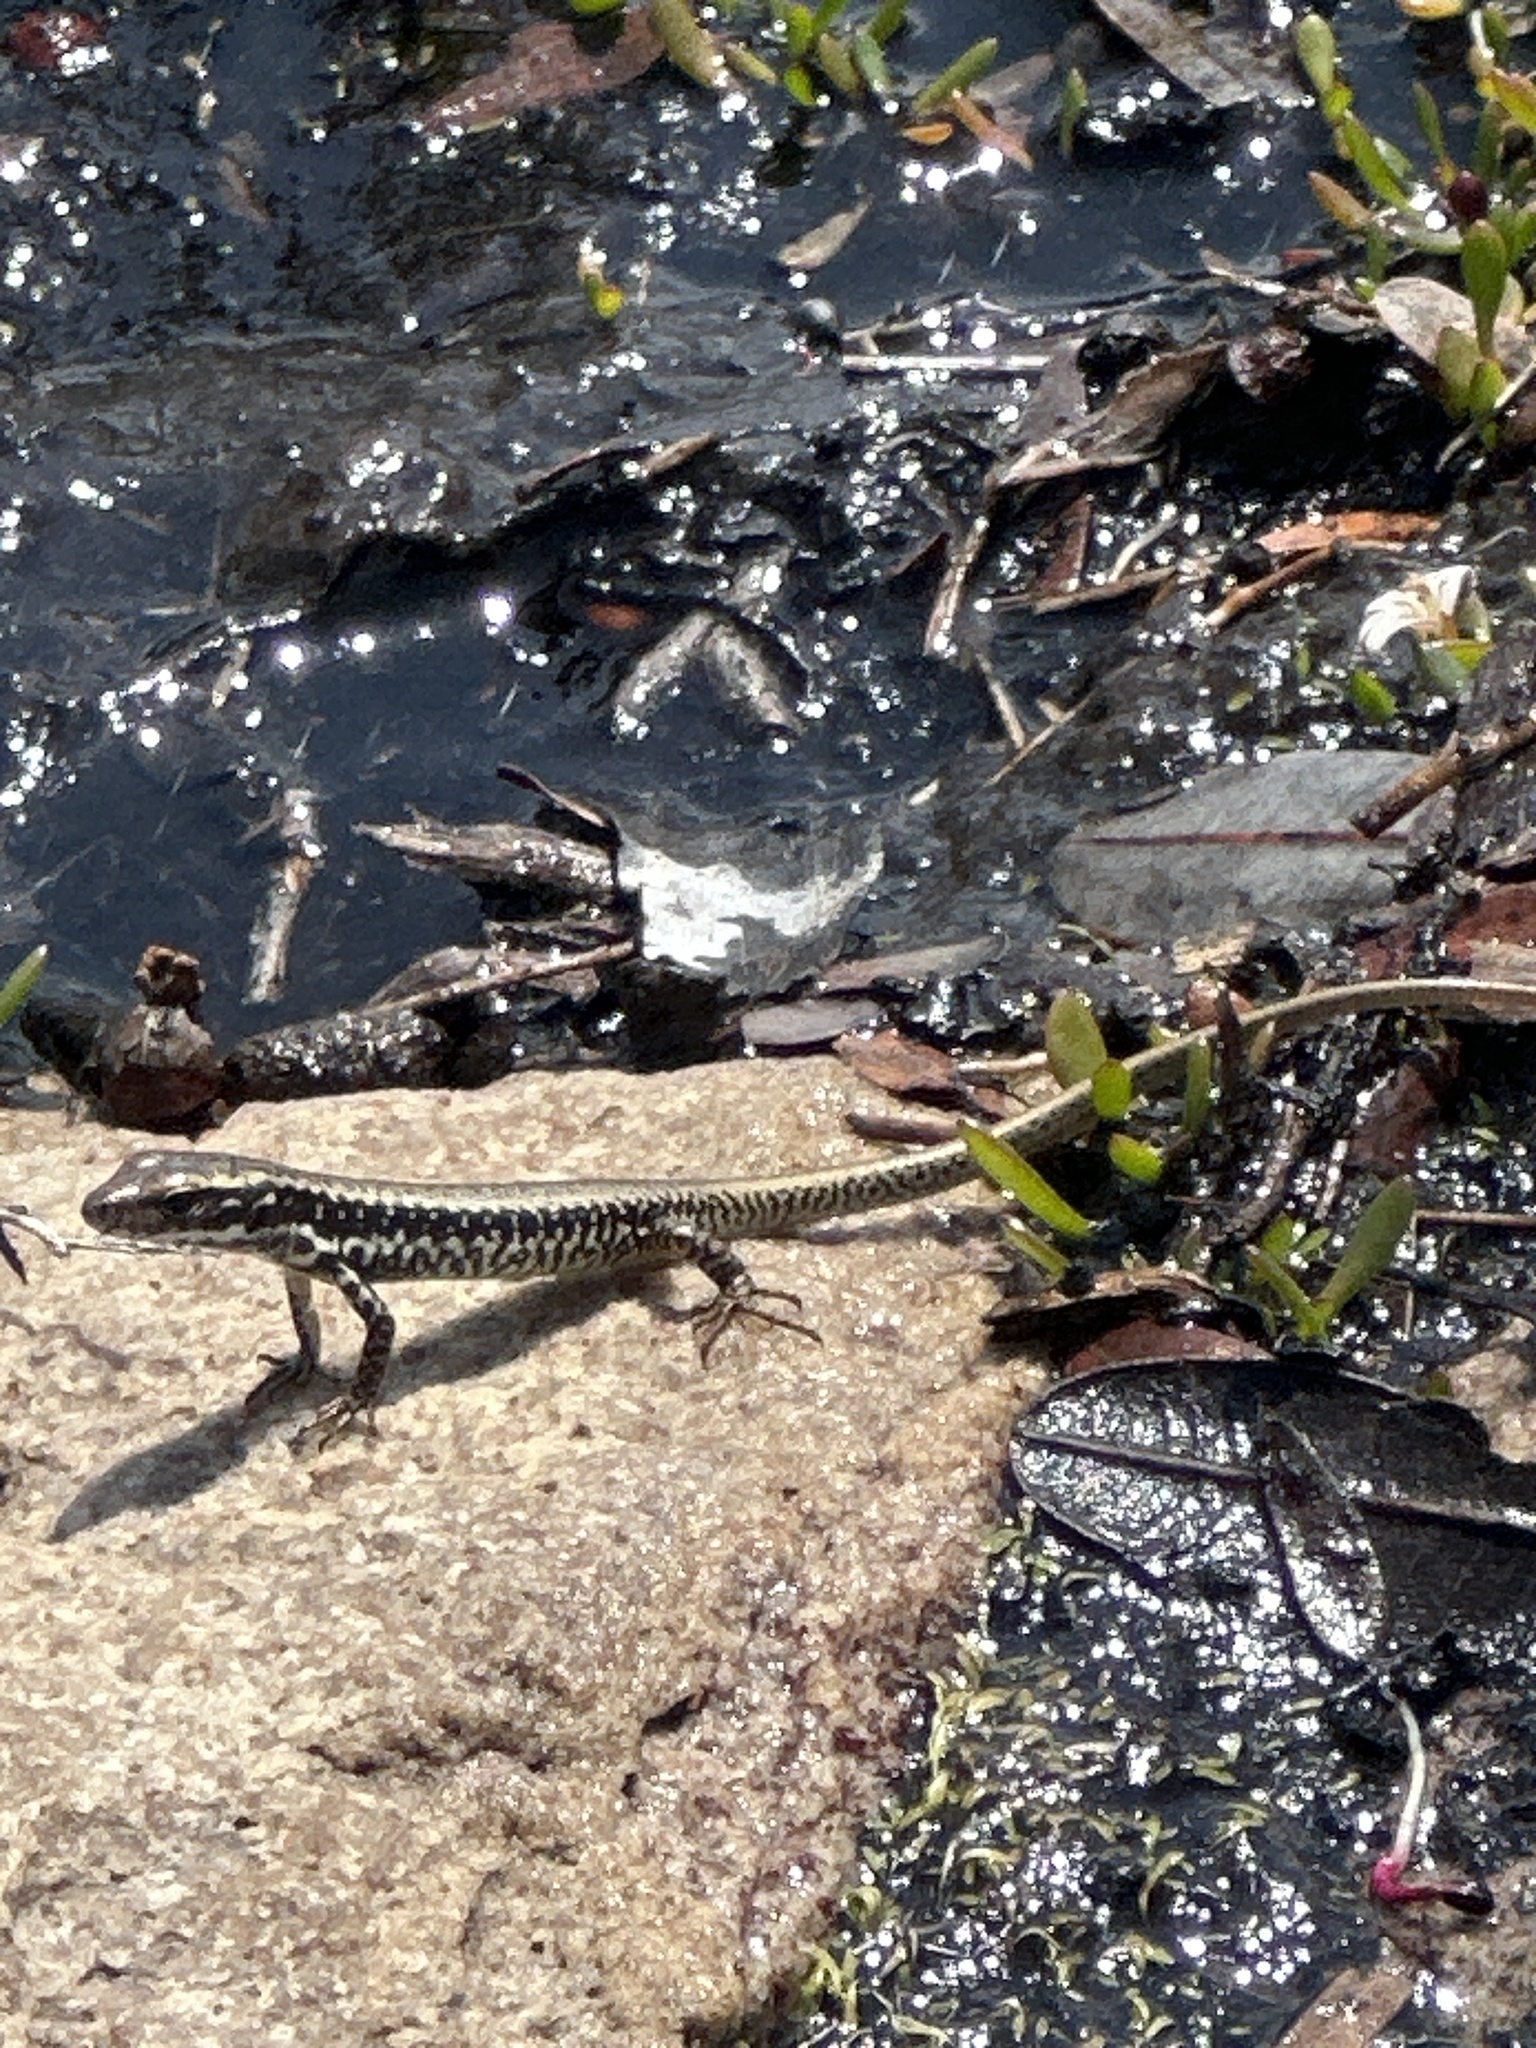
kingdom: Animalia
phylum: Chordata
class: Squamata
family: Scincidae
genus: Eulamprus
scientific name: Eulamprus heatwolei
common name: Warm-temperate water-skink
